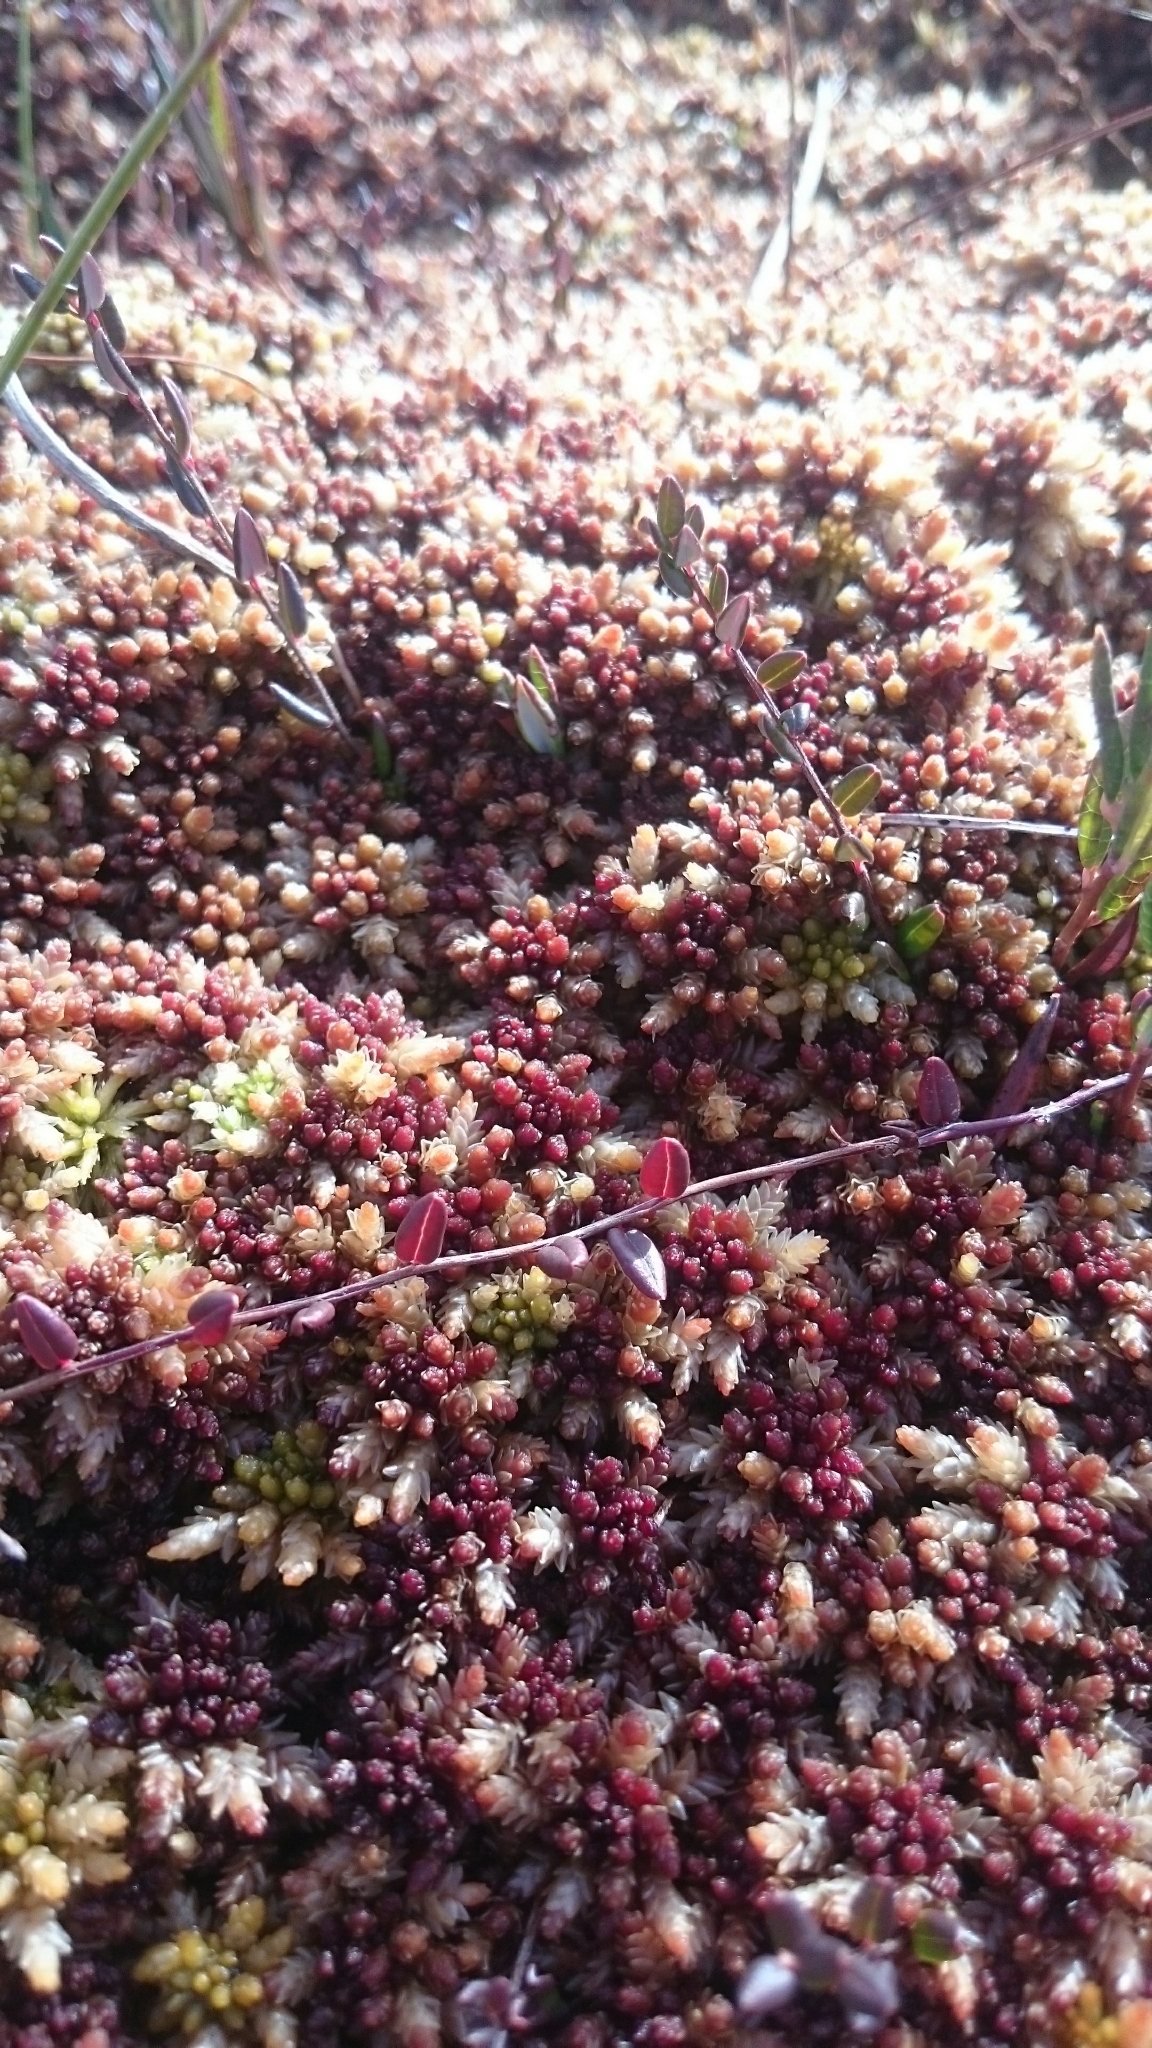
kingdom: Plantae
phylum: Tracheophyta
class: Magnoliopsida
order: Ericales
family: Ericaceae
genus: Vaccinium
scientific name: Vaccinium oxycoccos
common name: Cranberry
